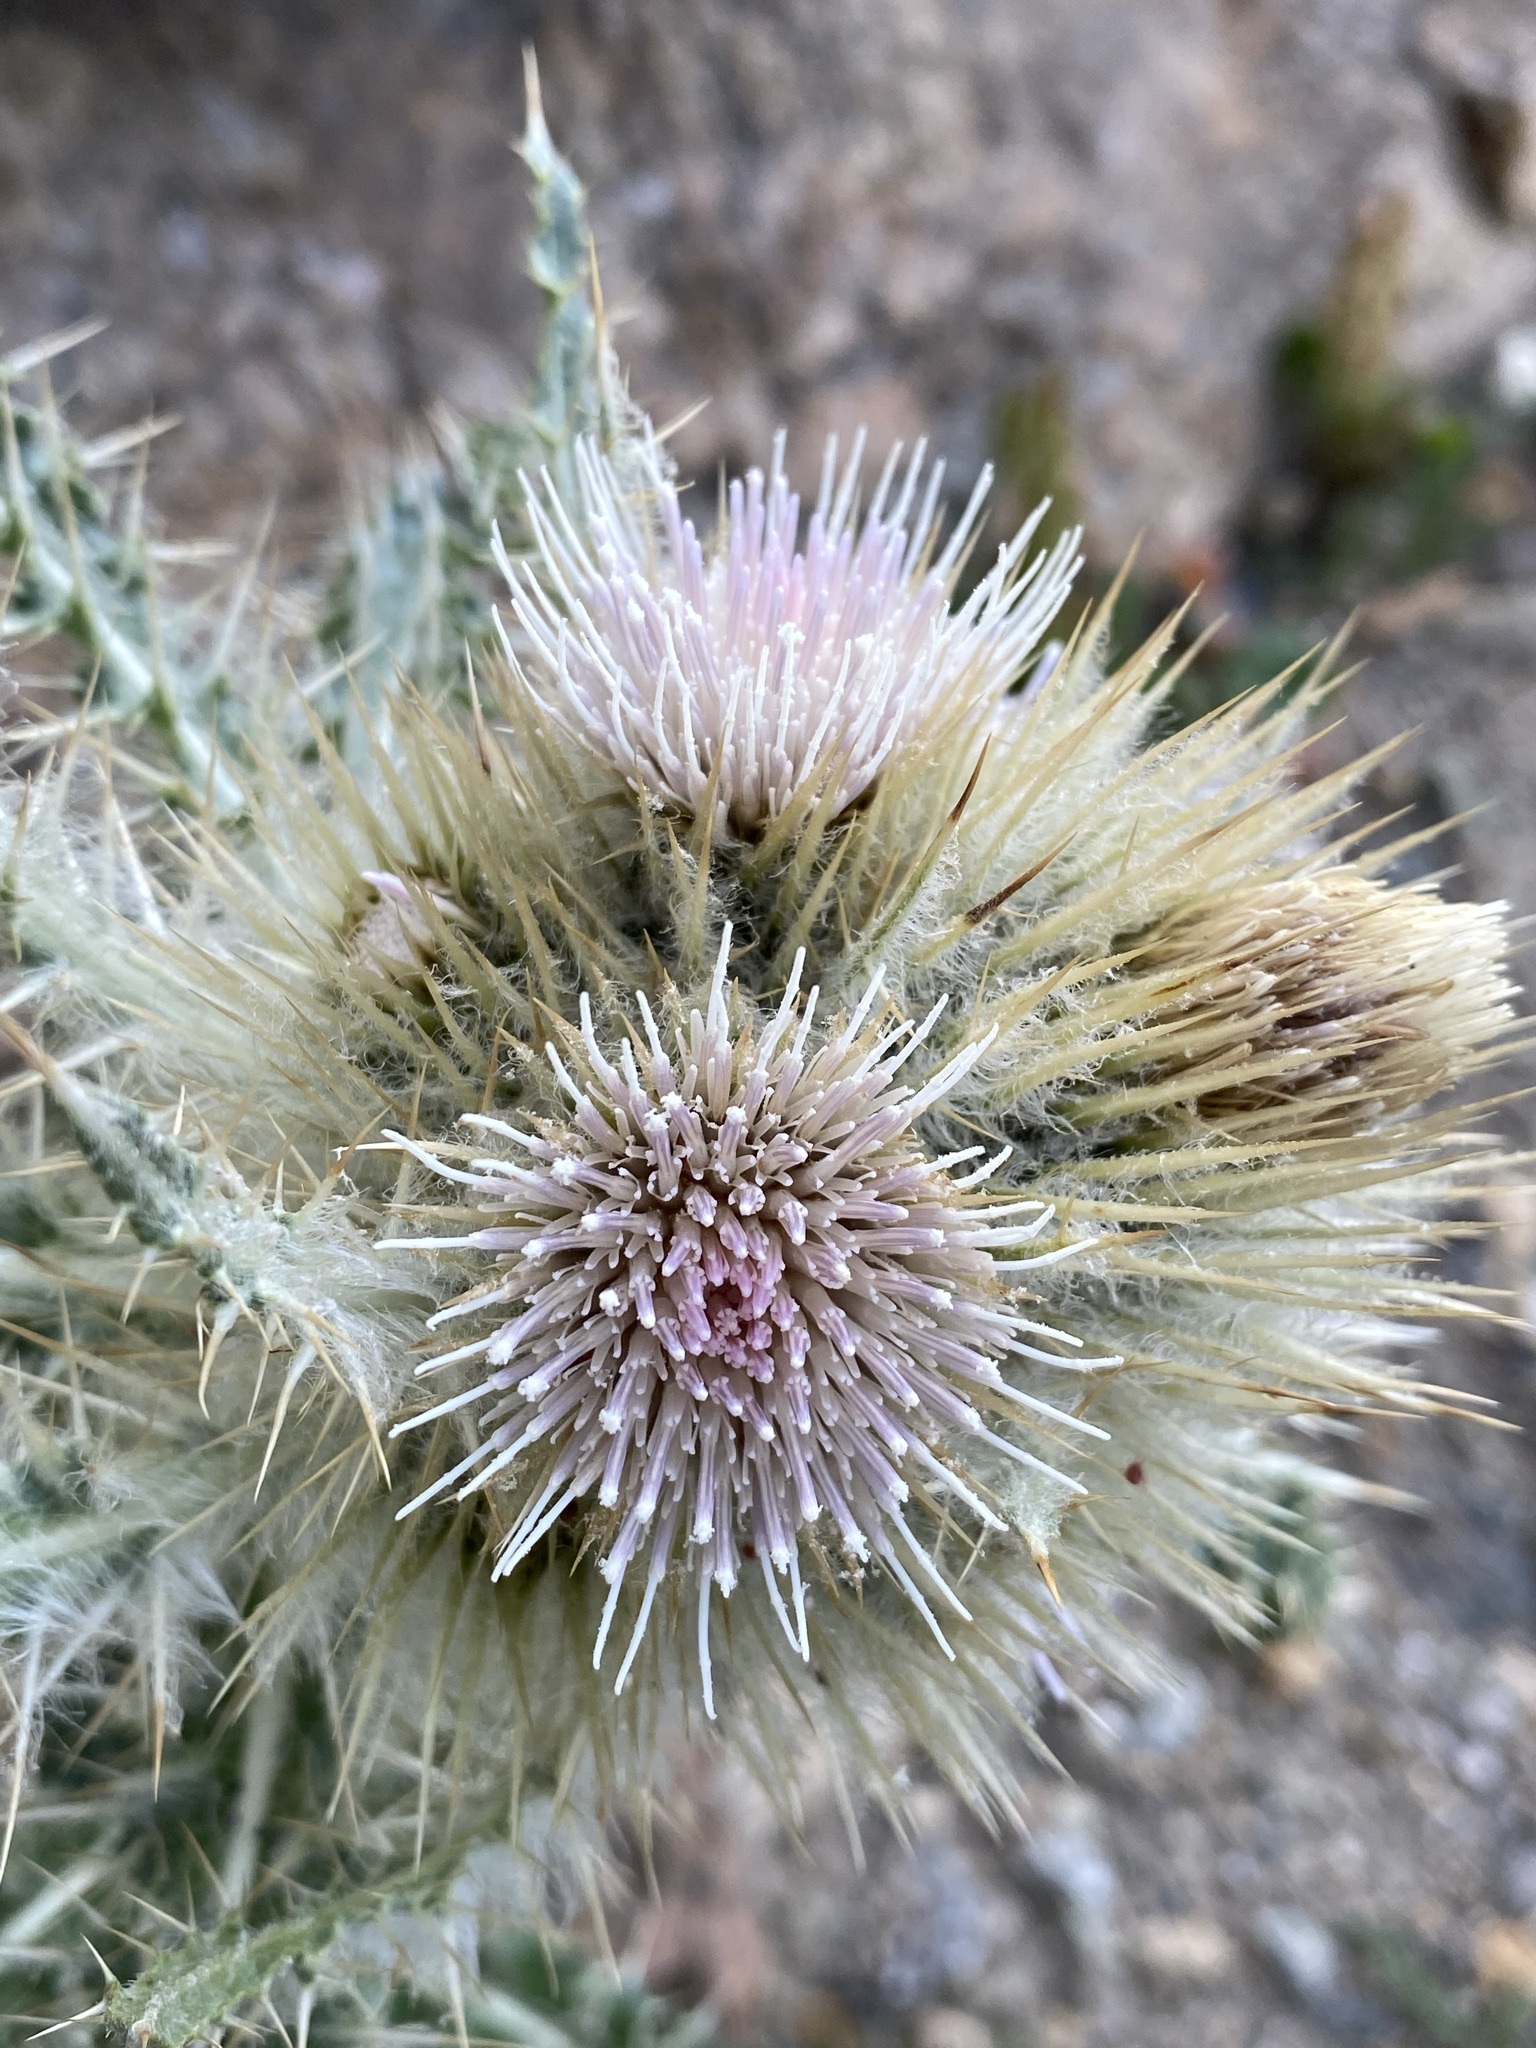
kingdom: Plantae
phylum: Tracheophyta
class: Magnoliopsida
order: Asterales
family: Asteraceae
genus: Cirsium
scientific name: Cirsium scopulorum
